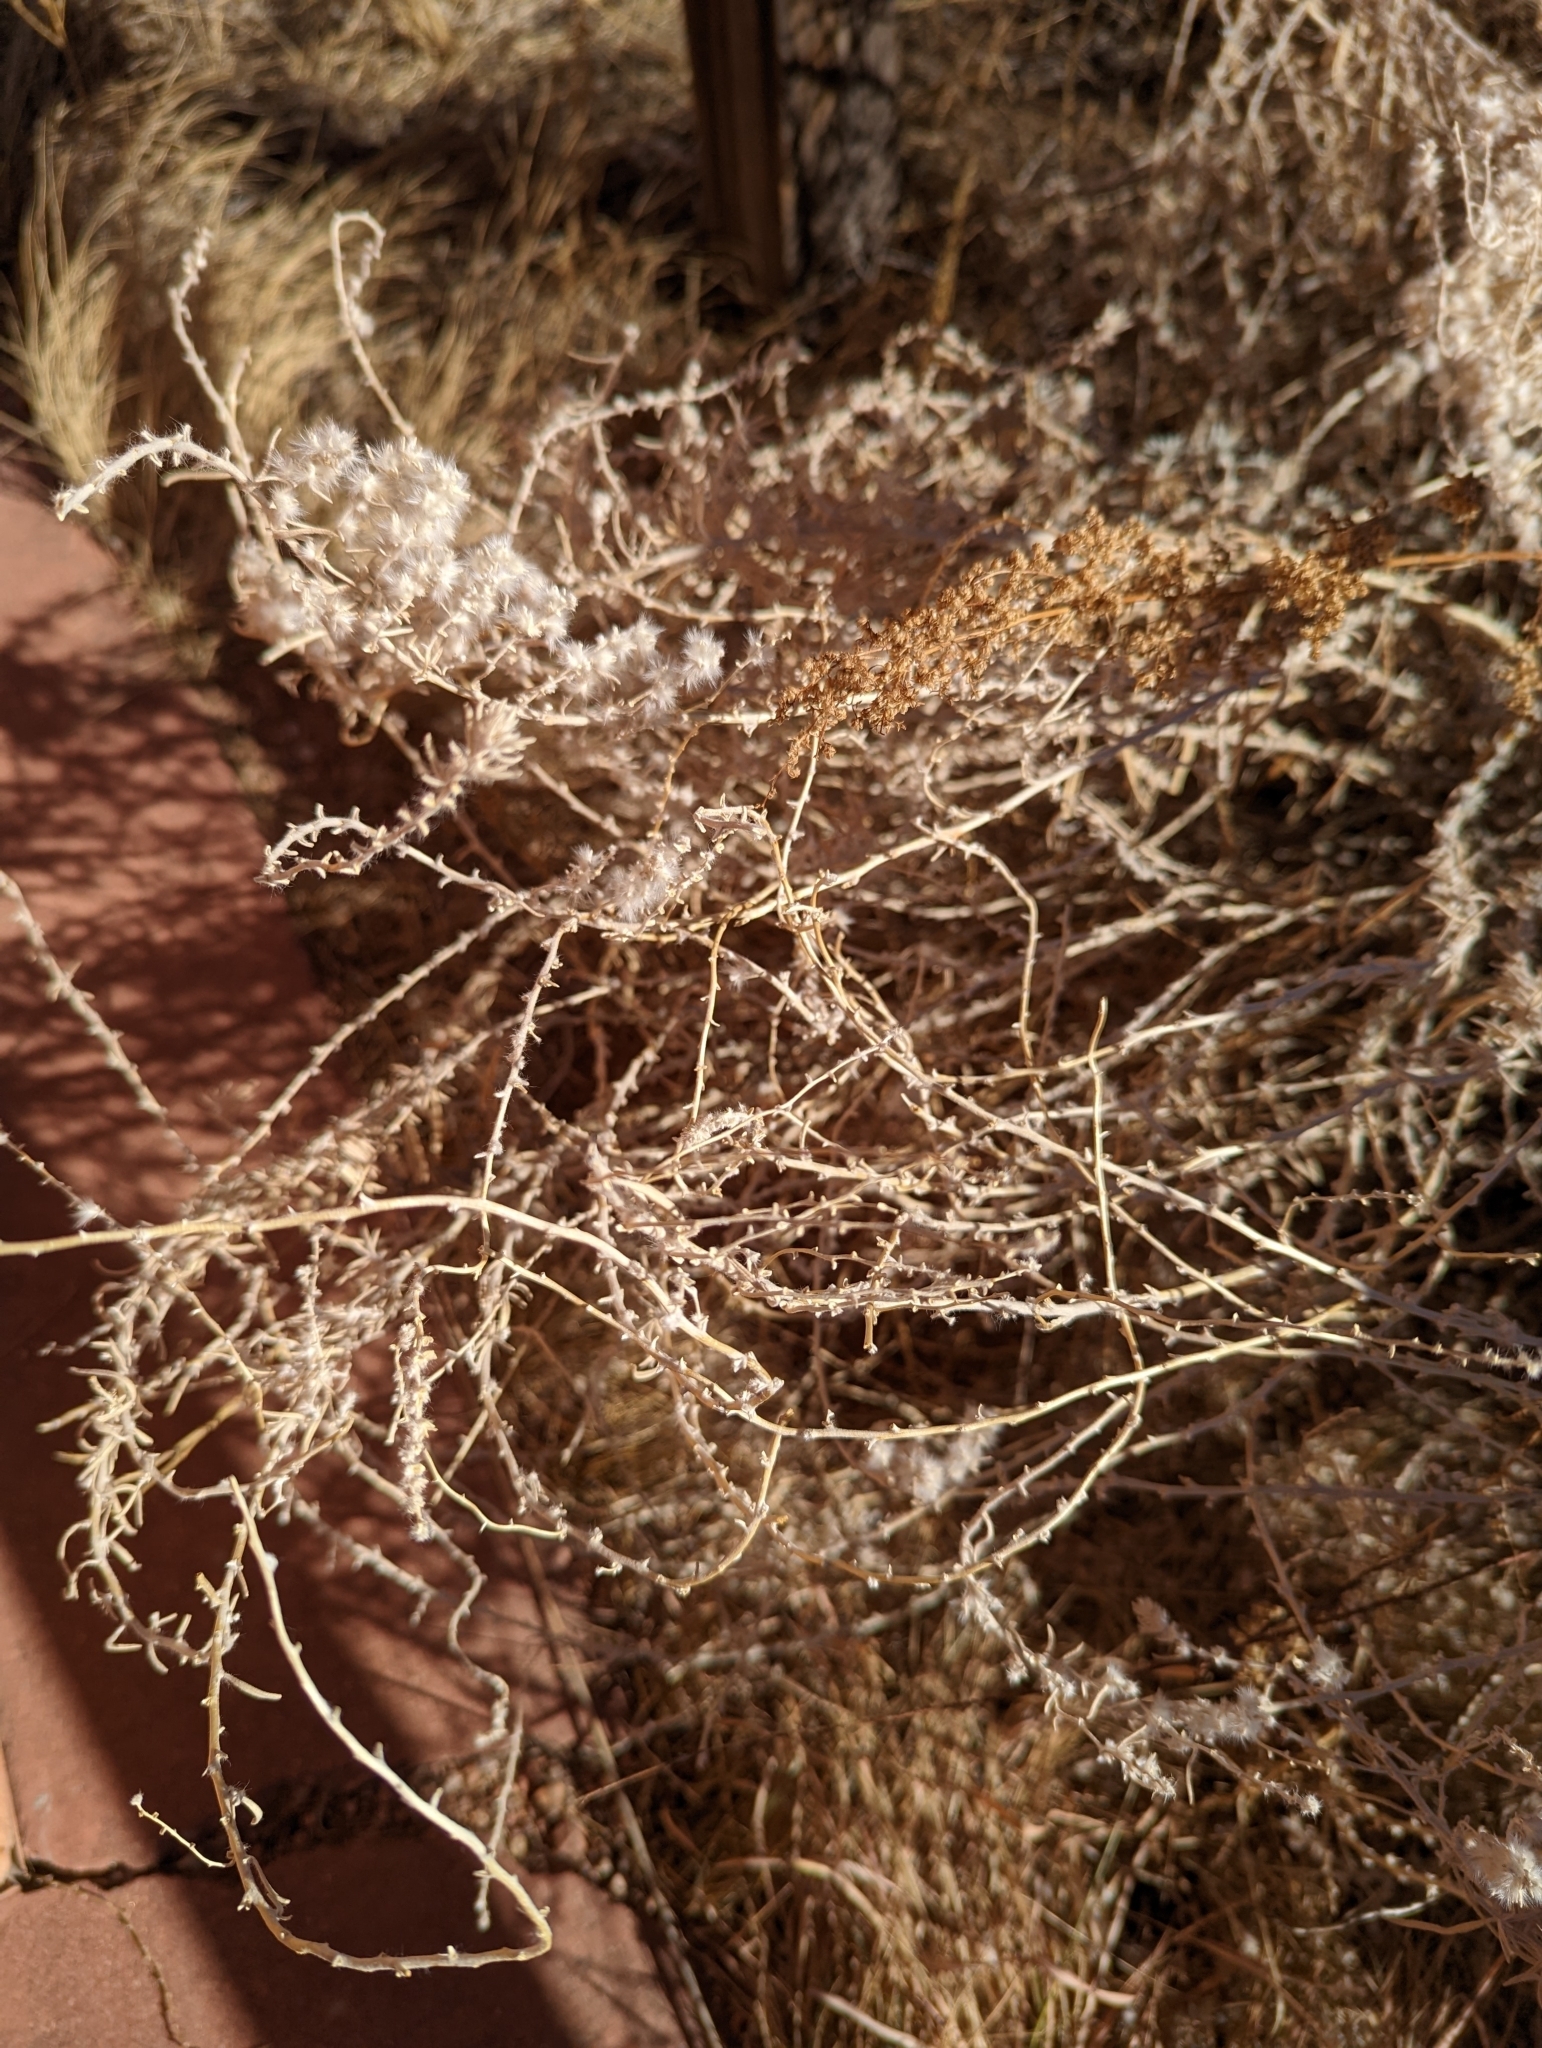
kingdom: Plantae
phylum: Tracheophyta
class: Magnoliopsida
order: Caryophyllales
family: Amaranthaceae
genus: Krascheninnikovia
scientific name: Krascheninnikovia lanata
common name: Winterfat
